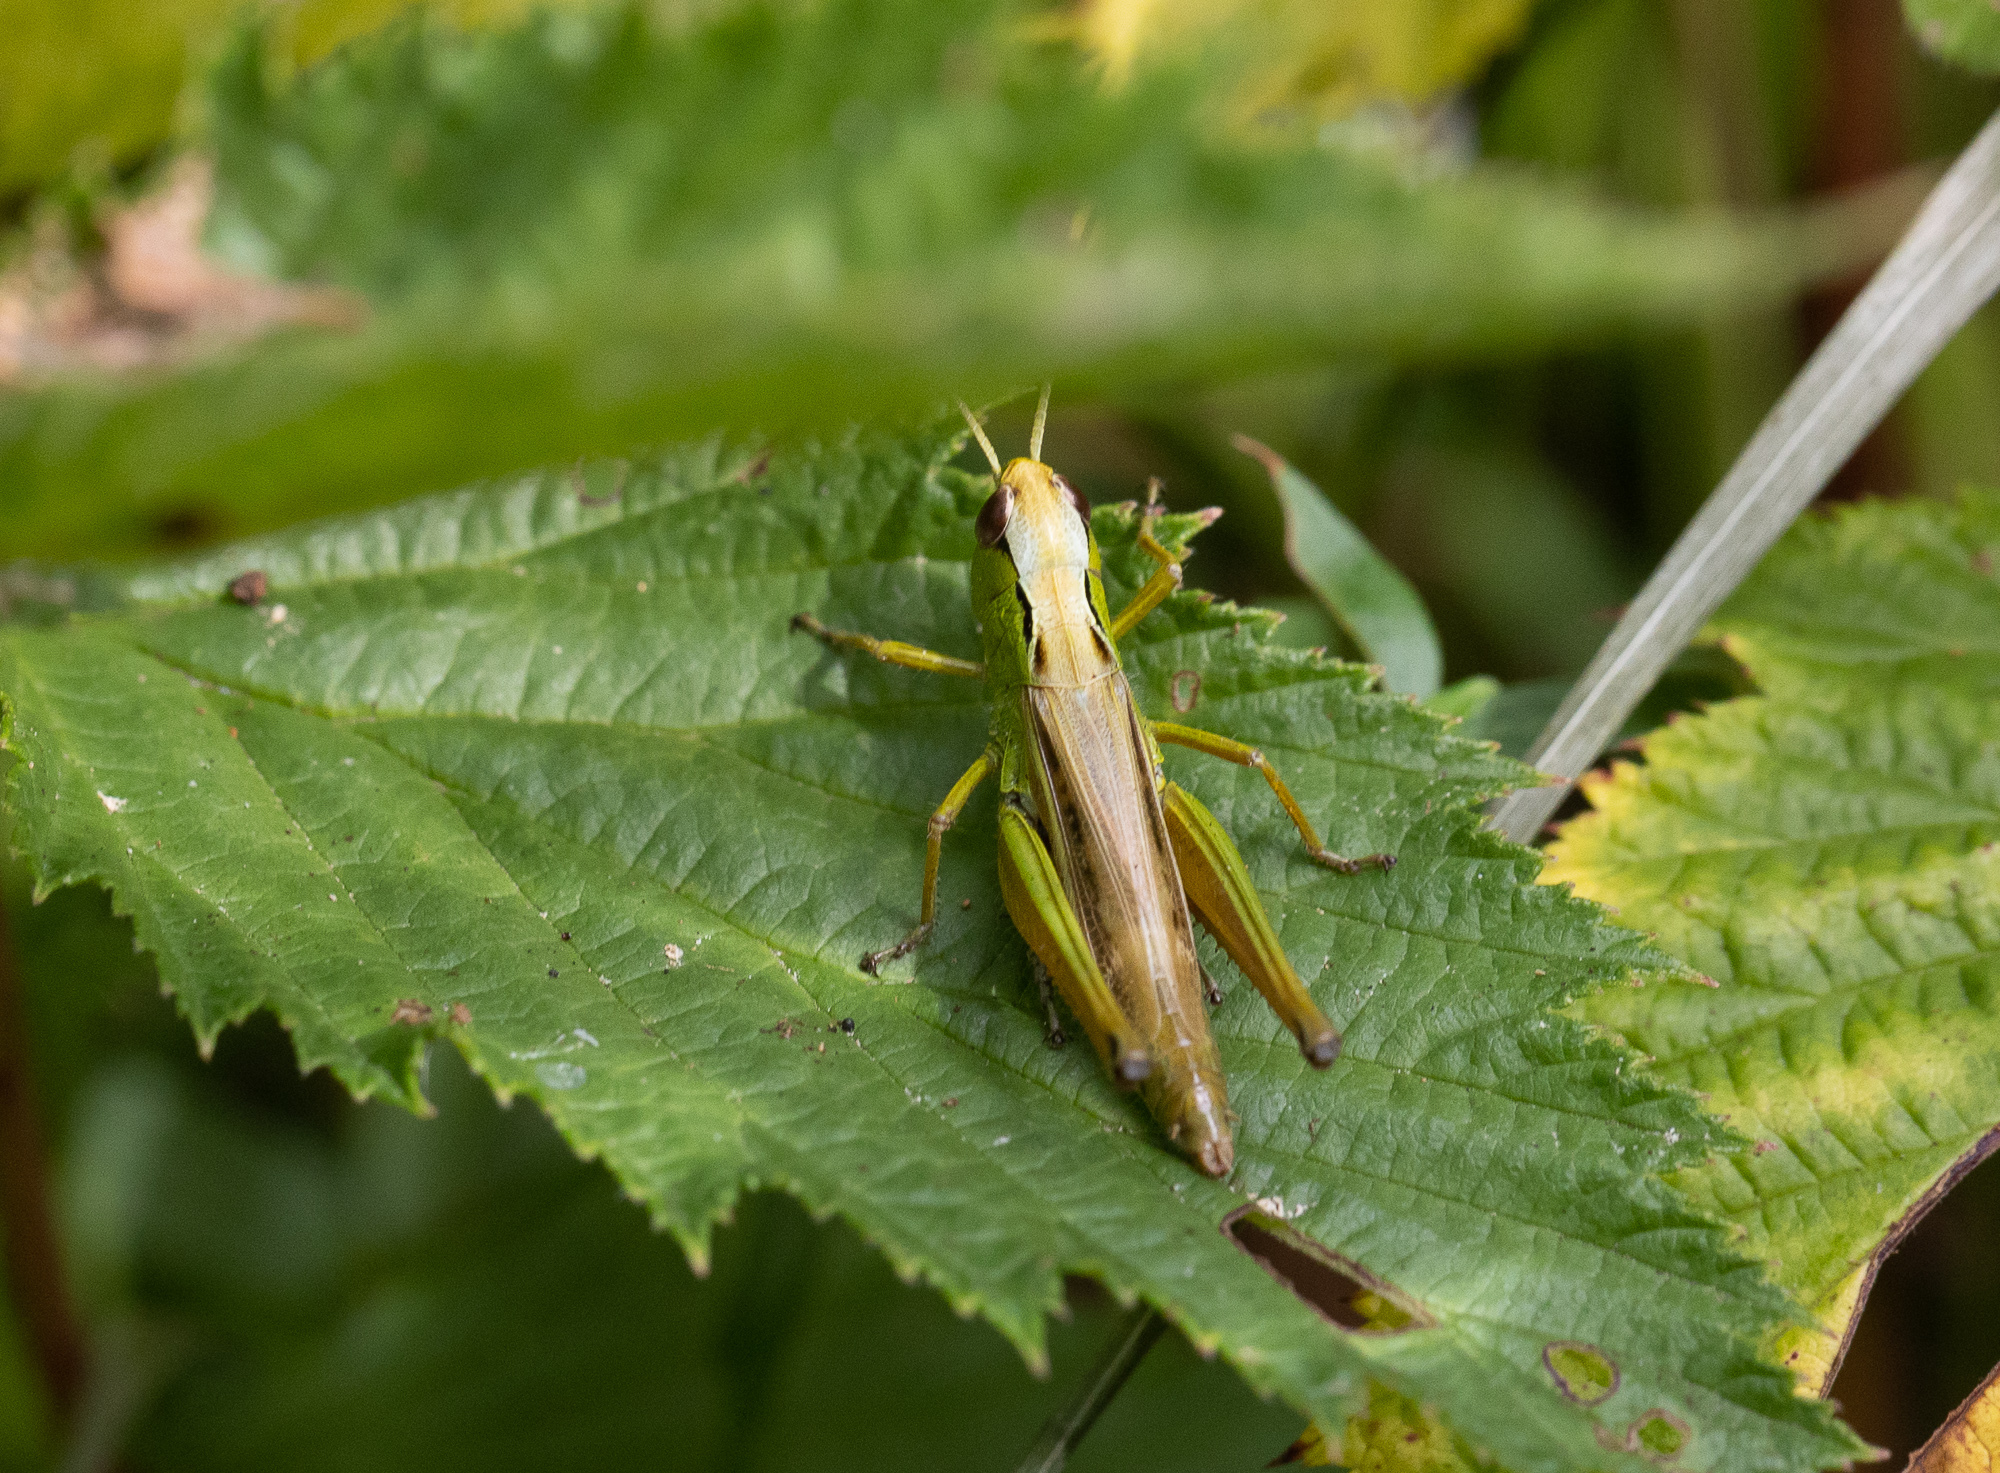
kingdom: Animalia
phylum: Arthropoda
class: Insecta
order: Orthoptera
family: Acrididae
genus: Pseudochorthippus
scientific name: Pseudochorthippus montanus
